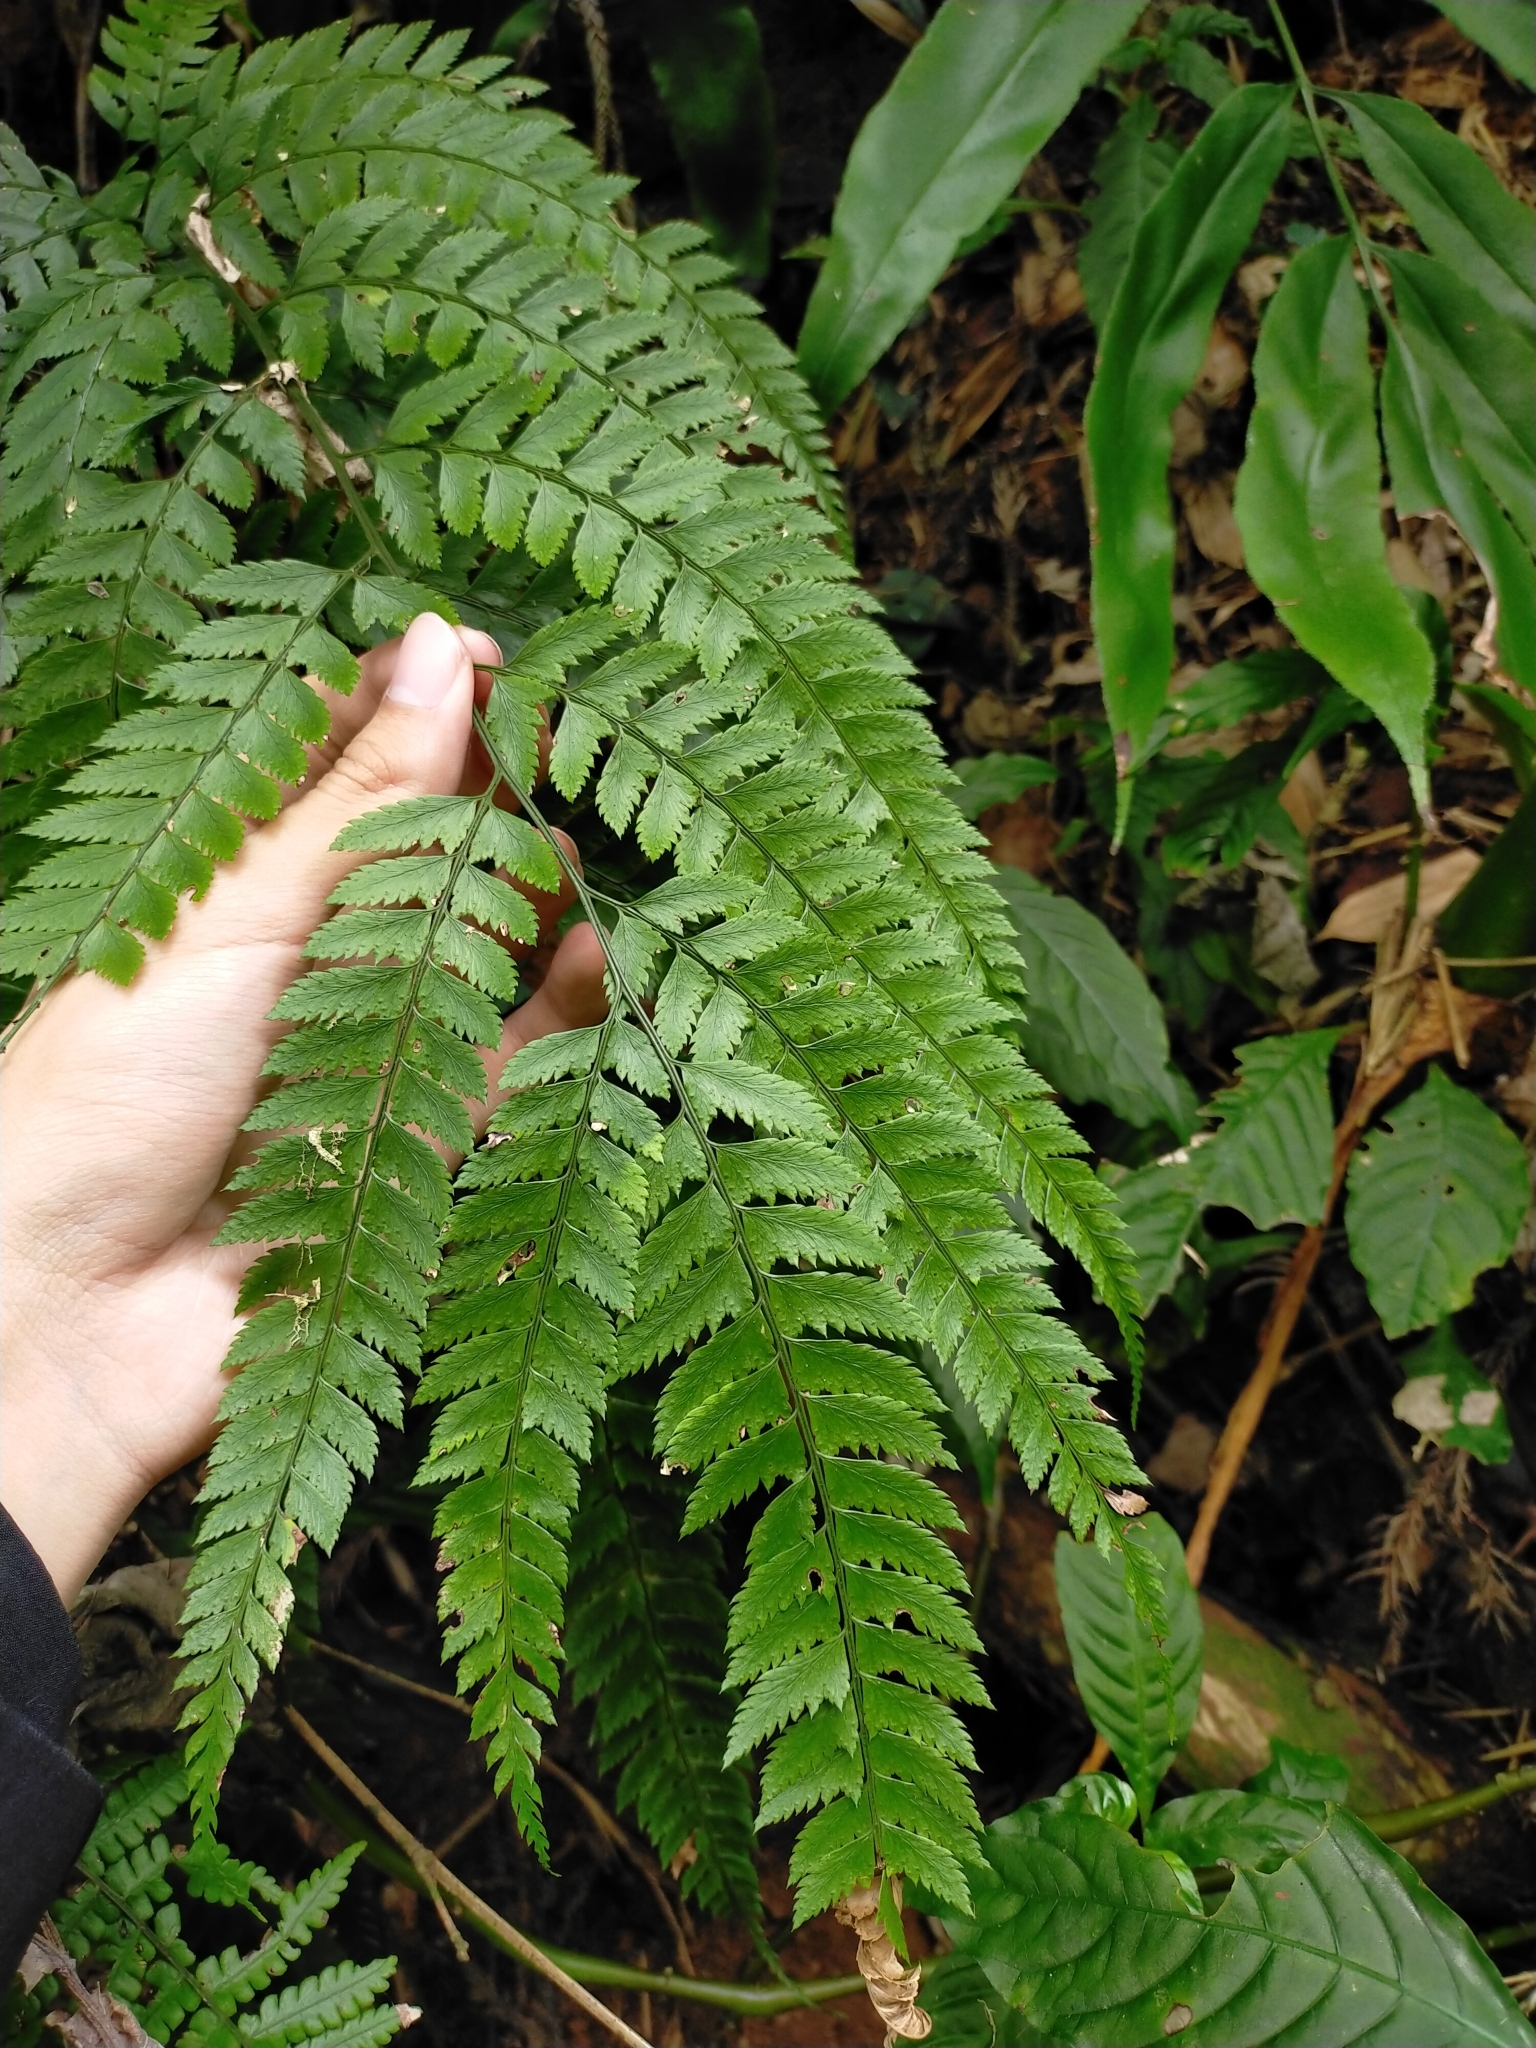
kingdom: Plantae
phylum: Tracheophyta
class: Polypodiopsida
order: Polypodiales
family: Dryopteridaceae
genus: Arachniodes
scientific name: Arachniodes rhomboidea
